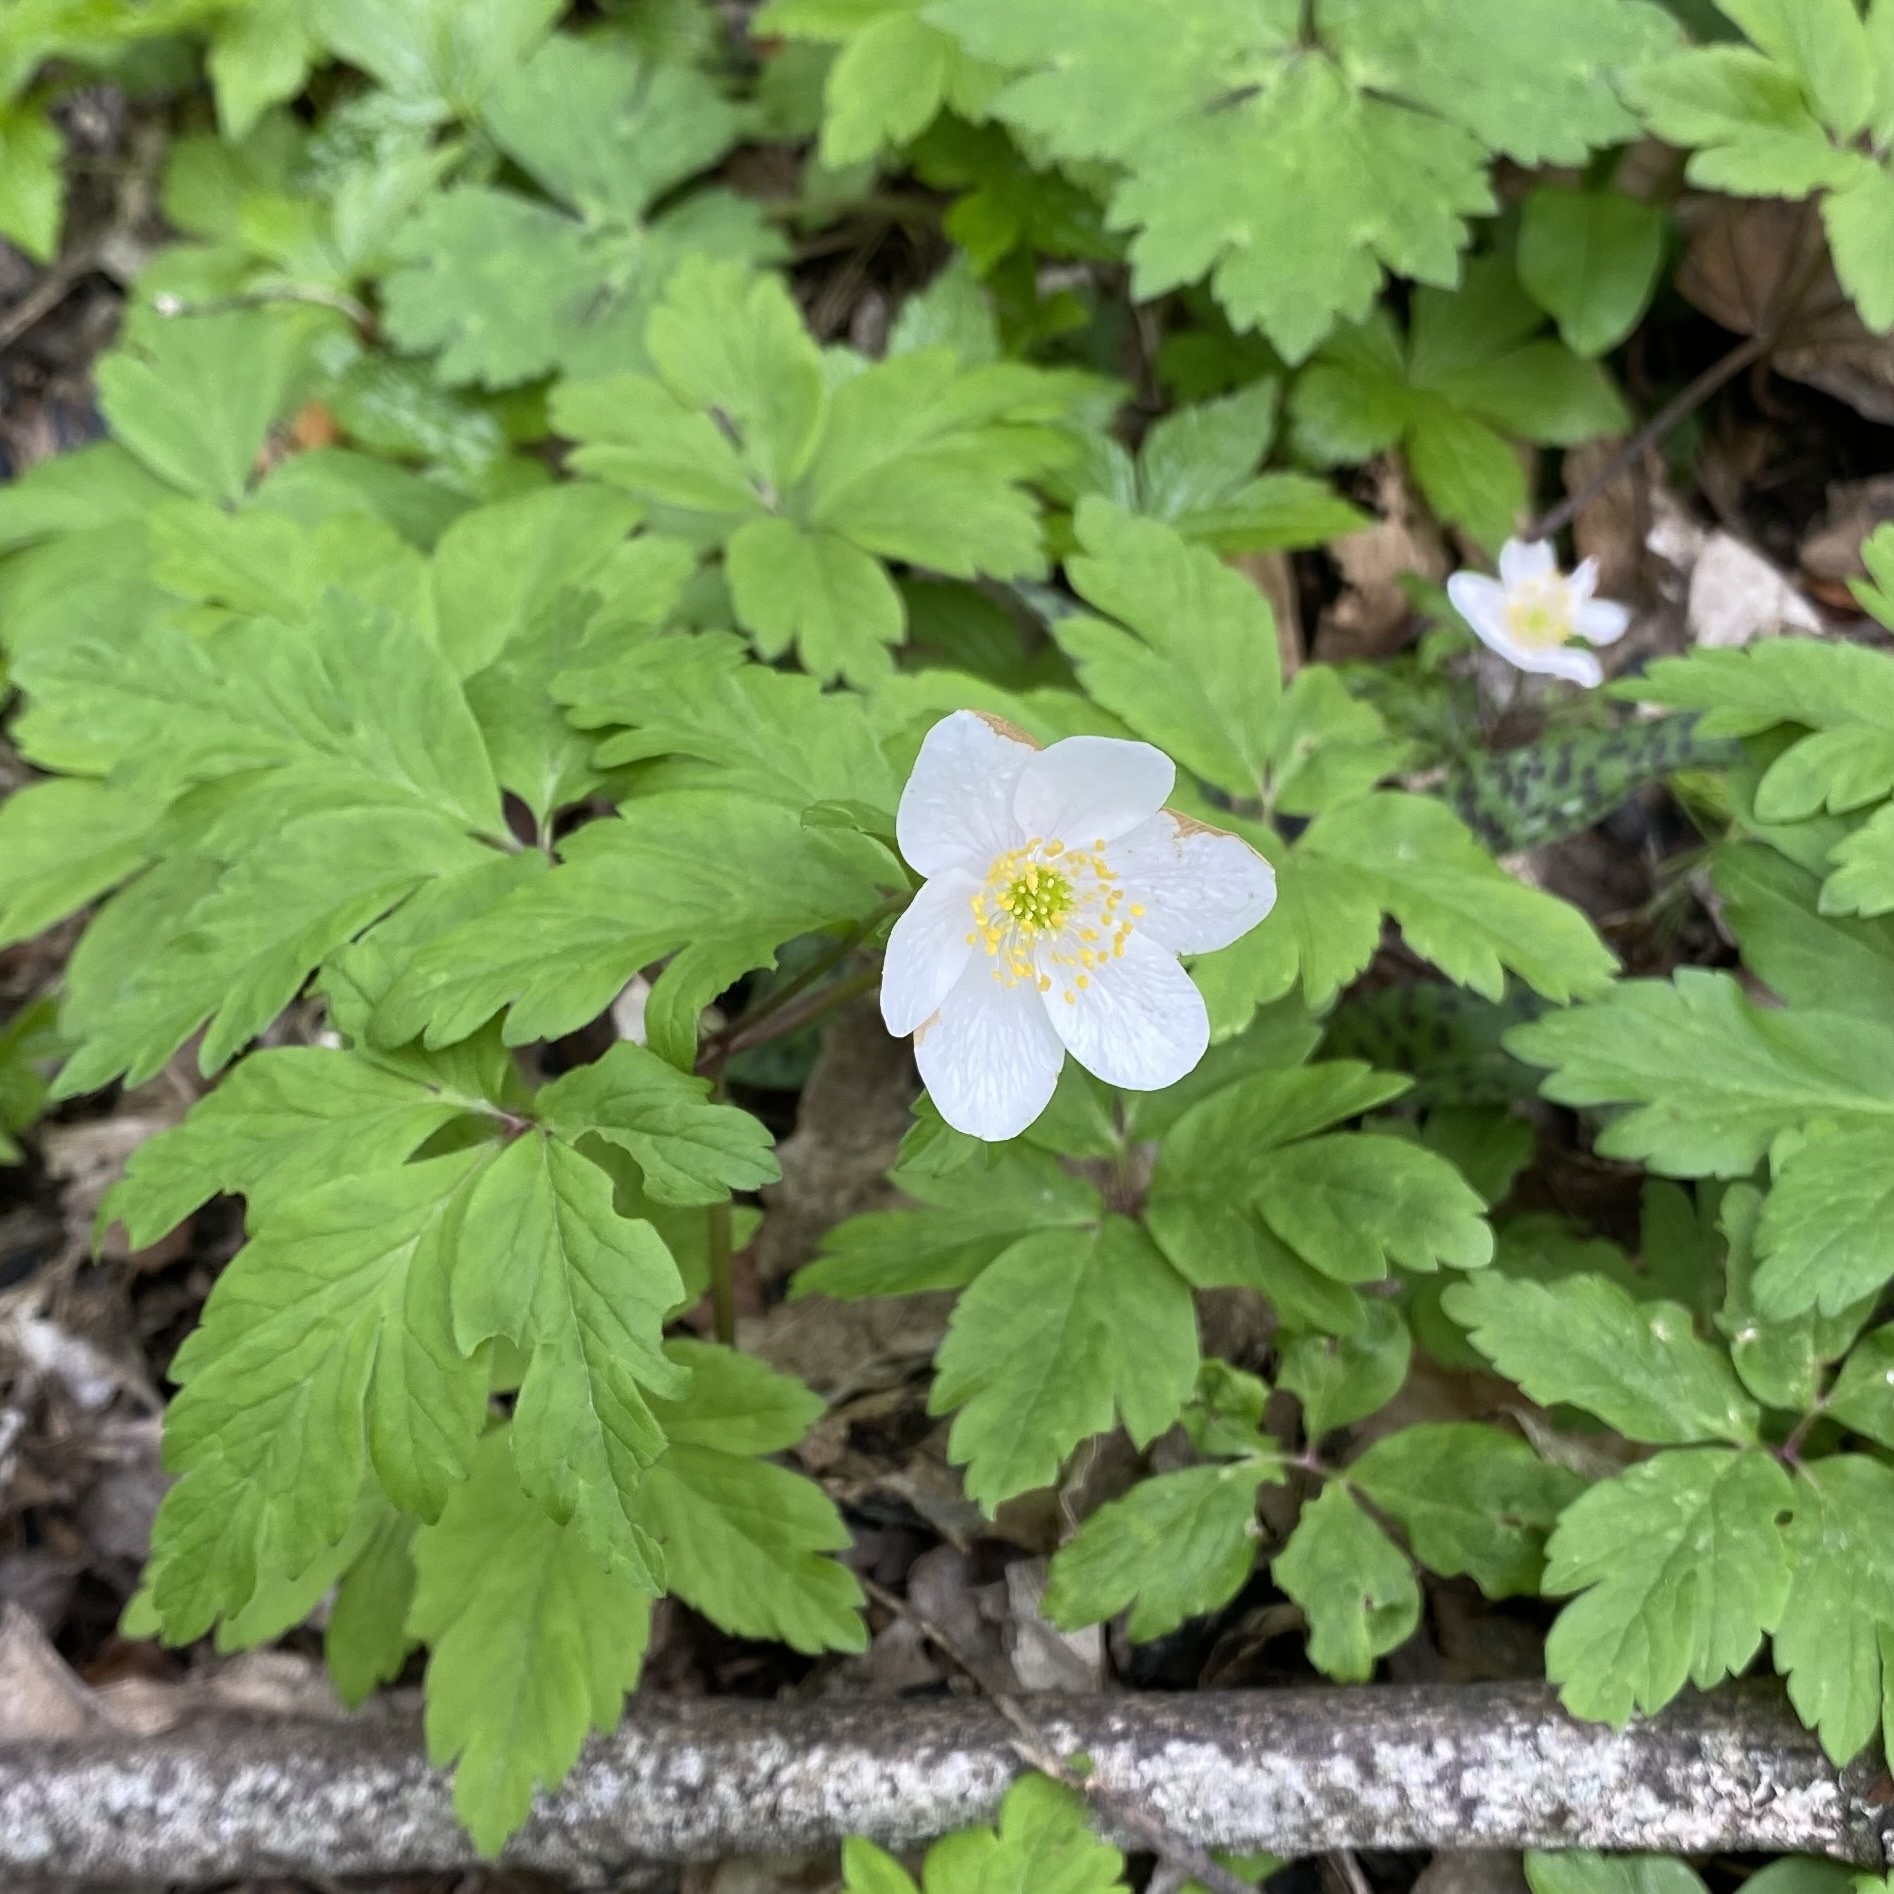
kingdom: Plantae
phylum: Tracheophyta
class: Magnoliopsida
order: Ranunculales
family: Ranunculaceae
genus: Anemone
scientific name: Anemone nemorosa
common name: Wood anemone
